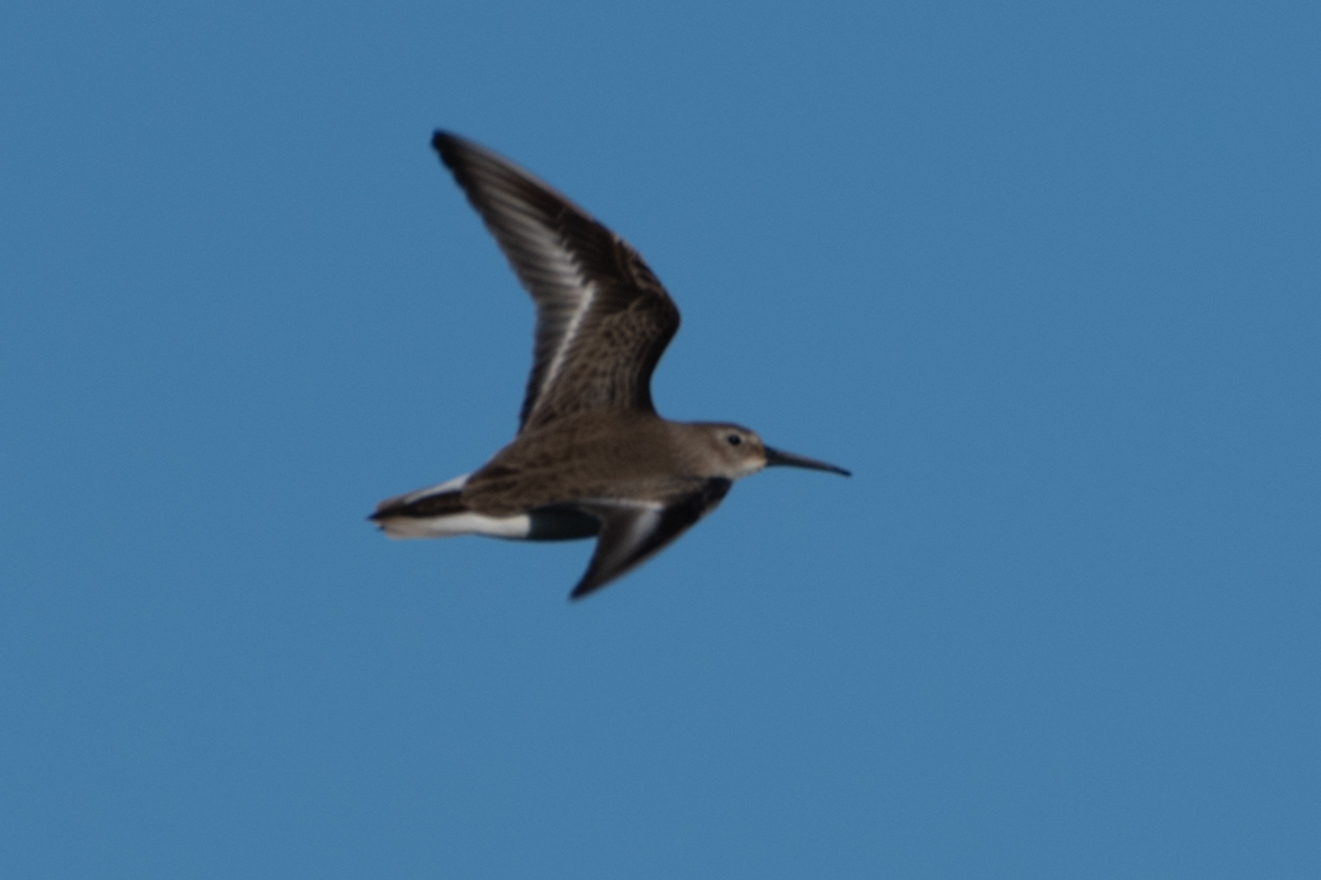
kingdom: Animalia
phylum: Chordata
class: Aves
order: Charadriiformes
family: Scolopacidae
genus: Calidris
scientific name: Calidris alpina
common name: Dunlin
